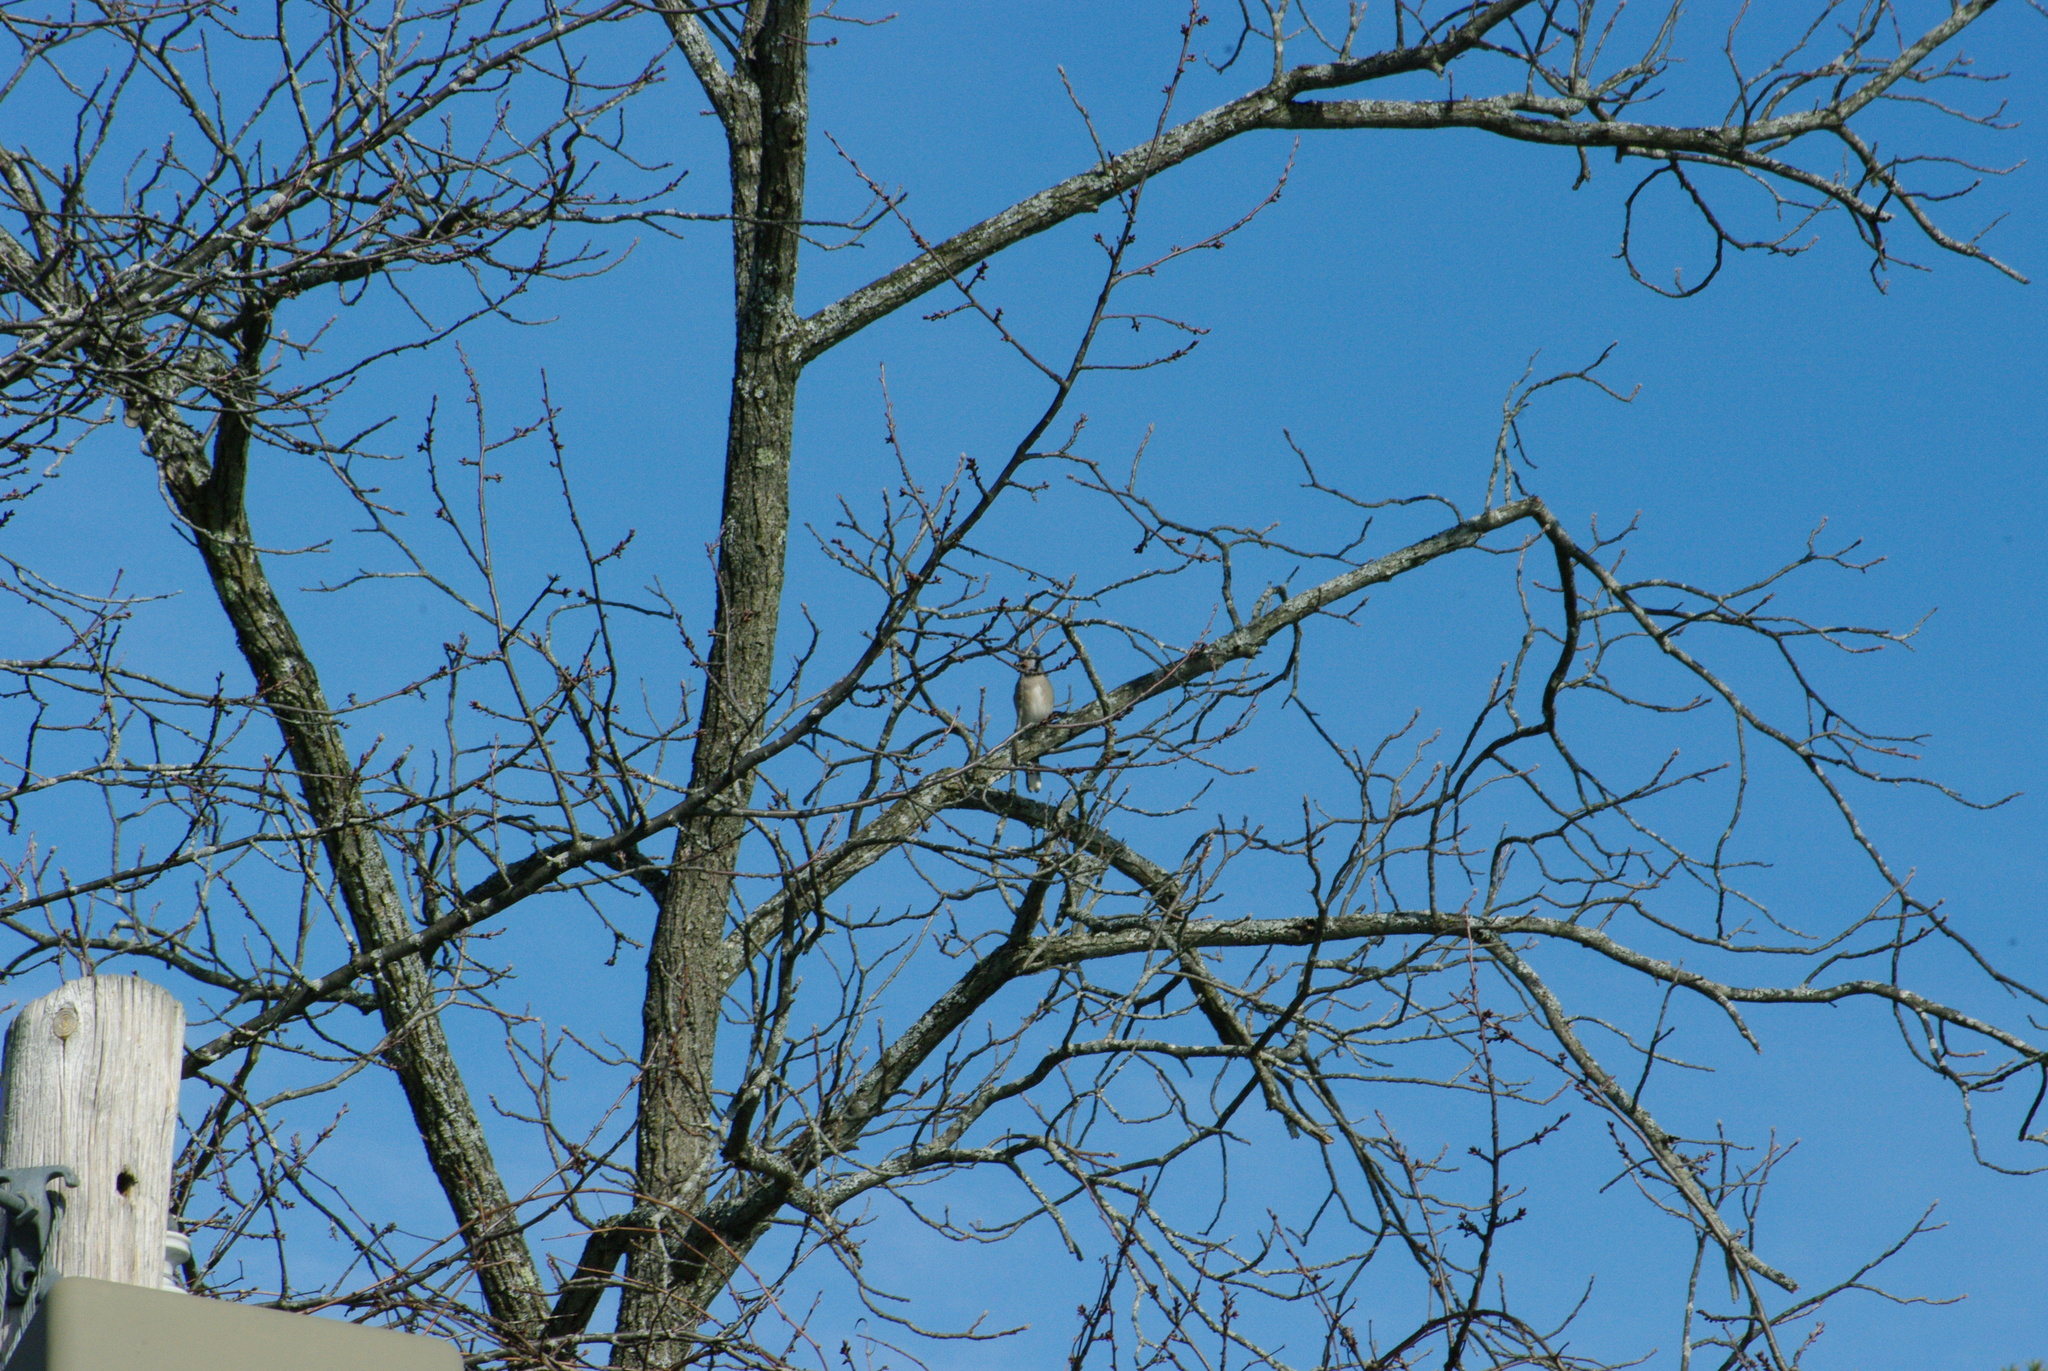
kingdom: Animalia
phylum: Chordata
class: Aves
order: Passeriformes
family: Corvidae
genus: Cyanocitta
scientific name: Cyanocitta cristata
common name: Blue jay
